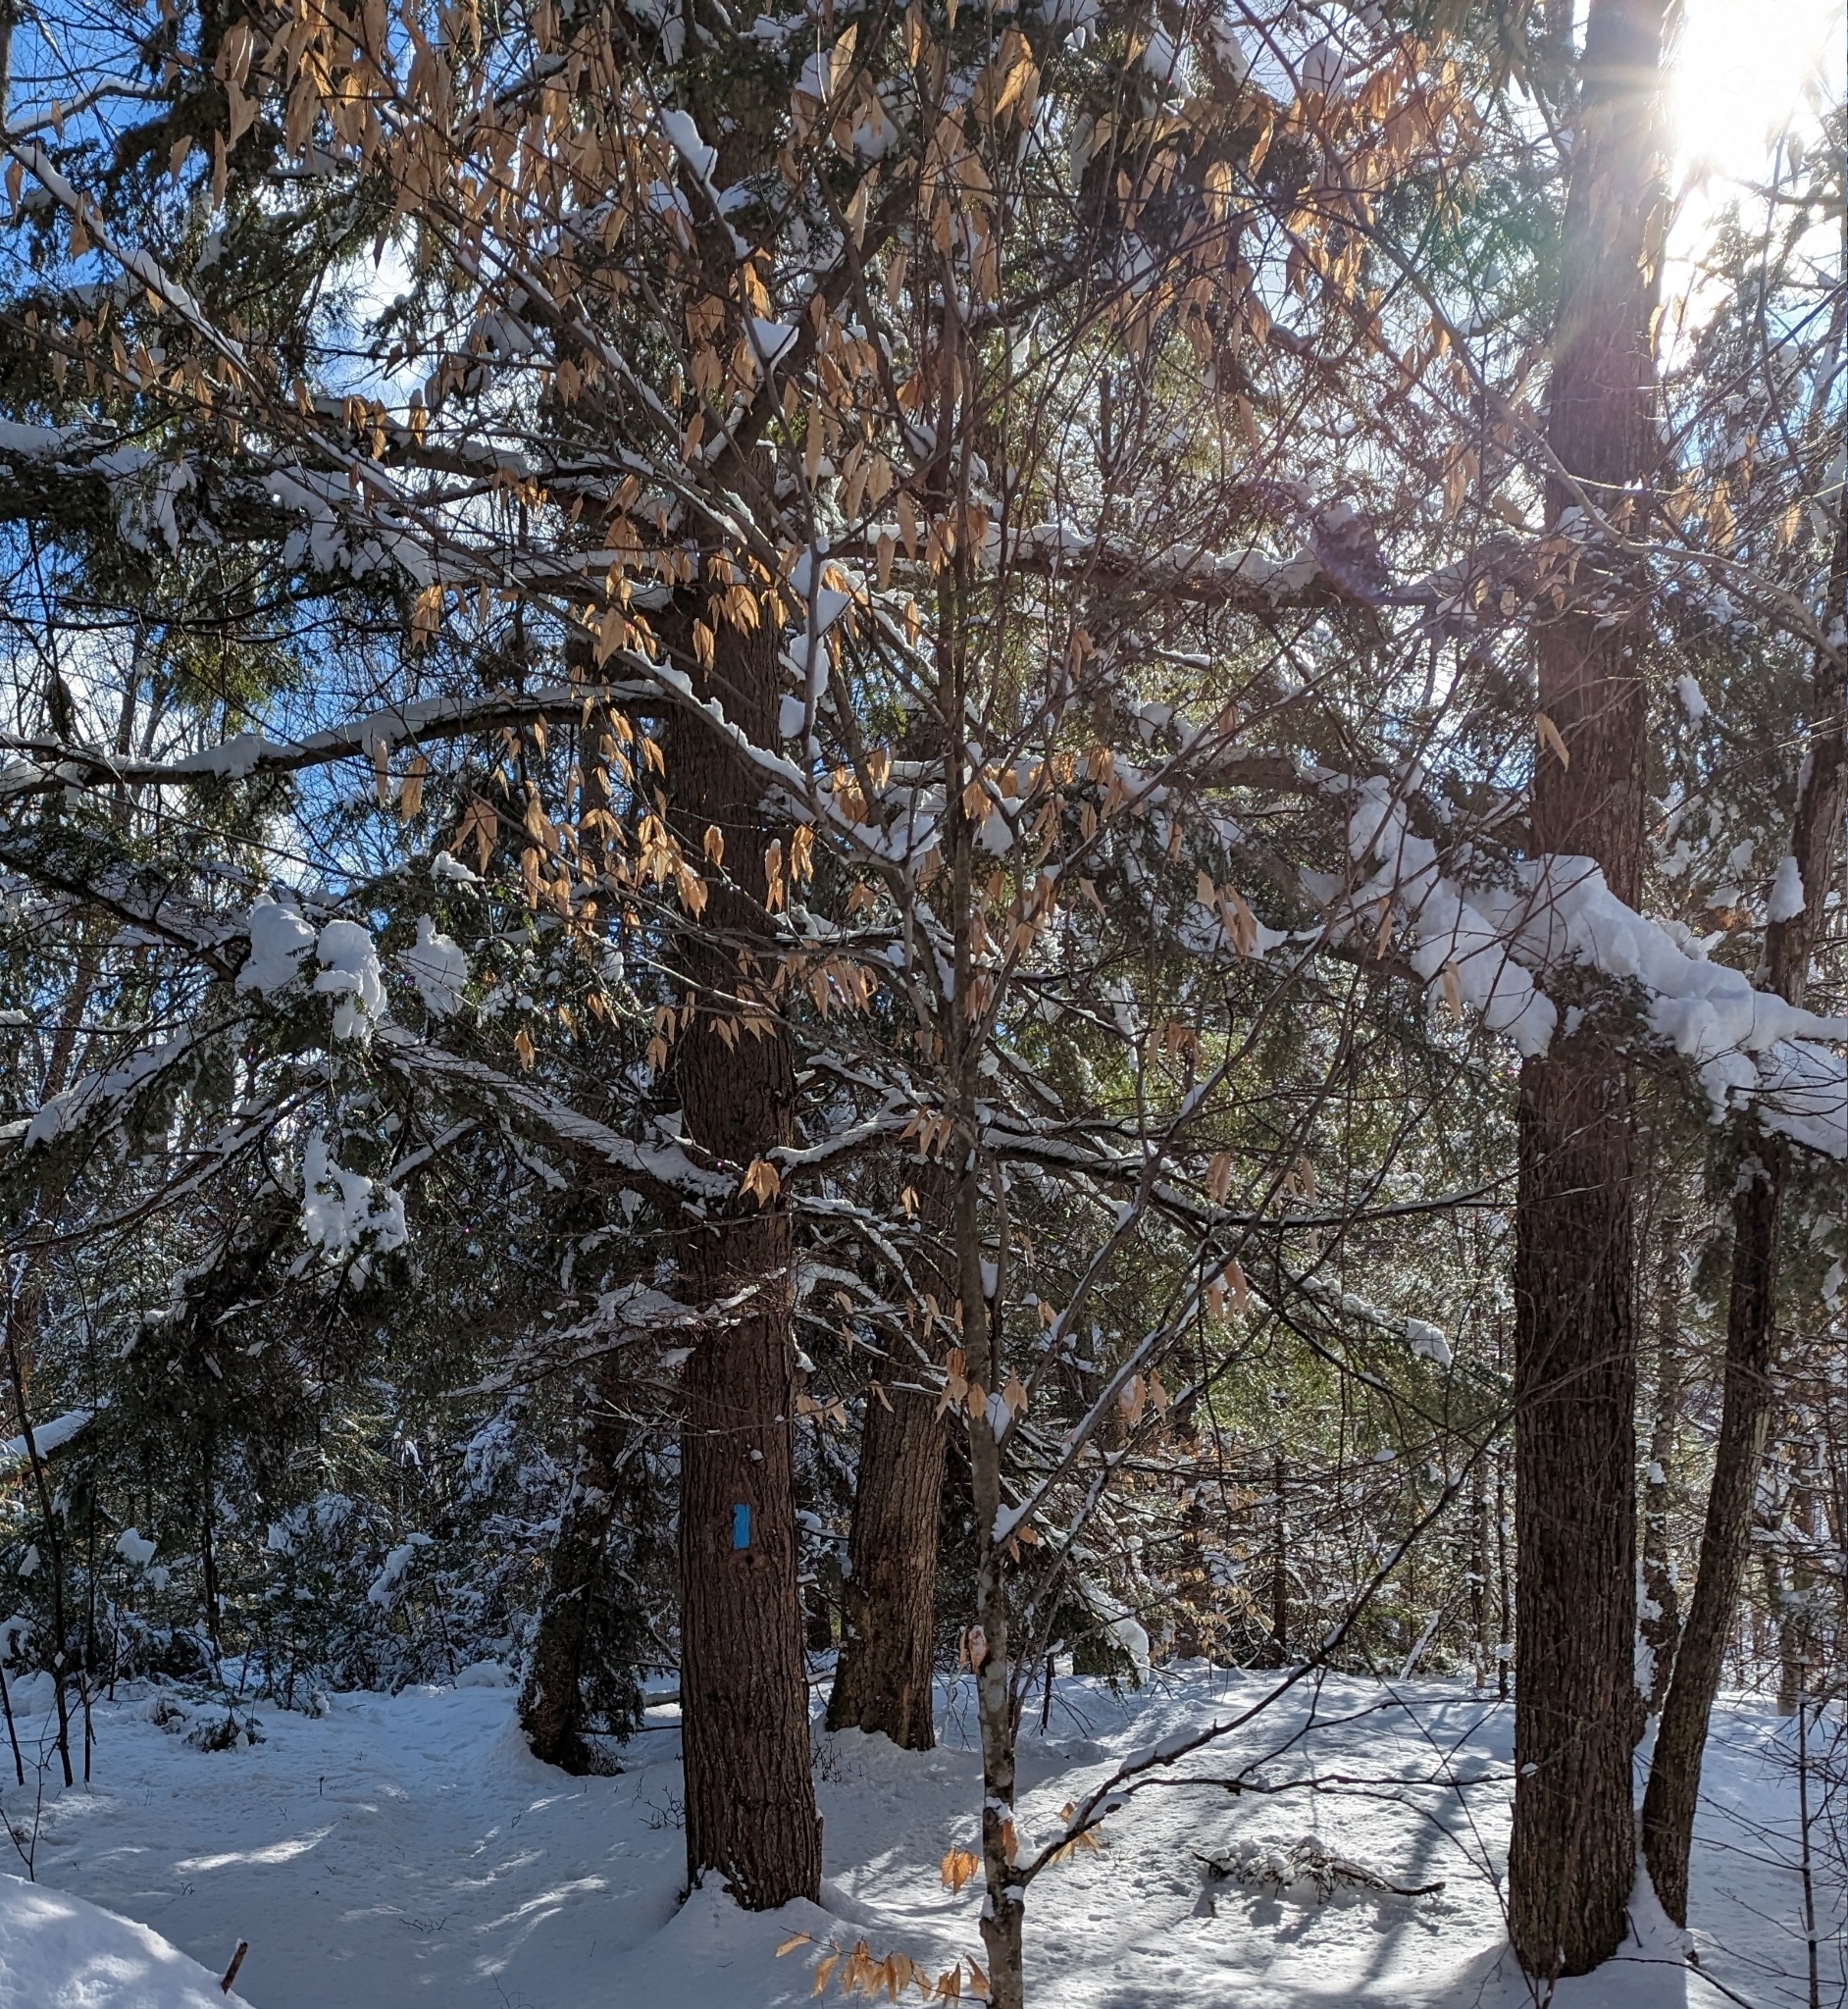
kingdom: Plantae
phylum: Tracheophyta
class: Magnoliopsida
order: Fagales
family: Fagaceae
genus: Fagus
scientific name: Fagus grandifolia
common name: American beech
